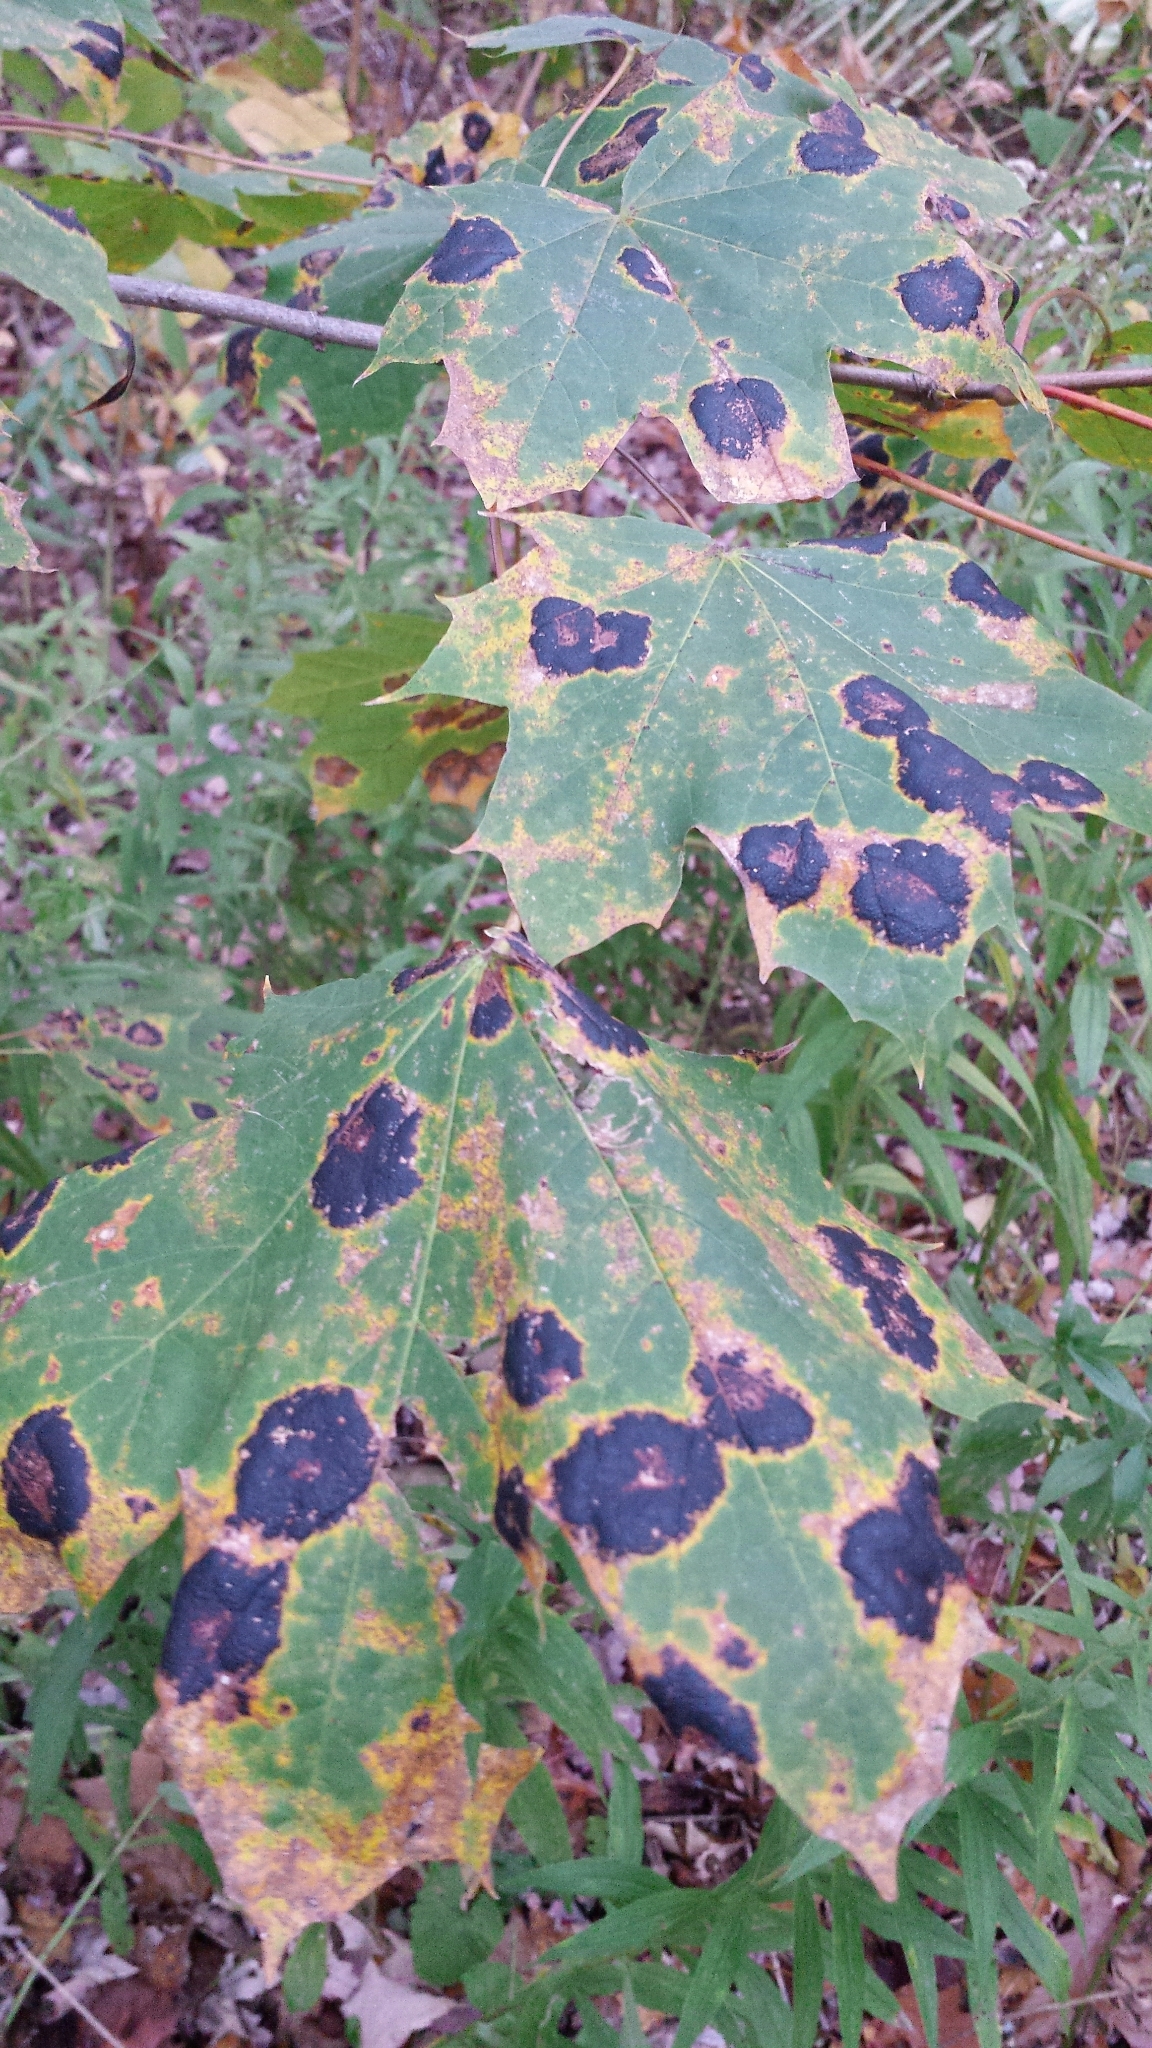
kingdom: Fungi
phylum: Ascomycota
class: Leotiomycetes
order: Rhytismatales
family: Rhytismataceae
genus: Rhytisma
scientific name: Rhytisma acerinum
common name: European tar spot
